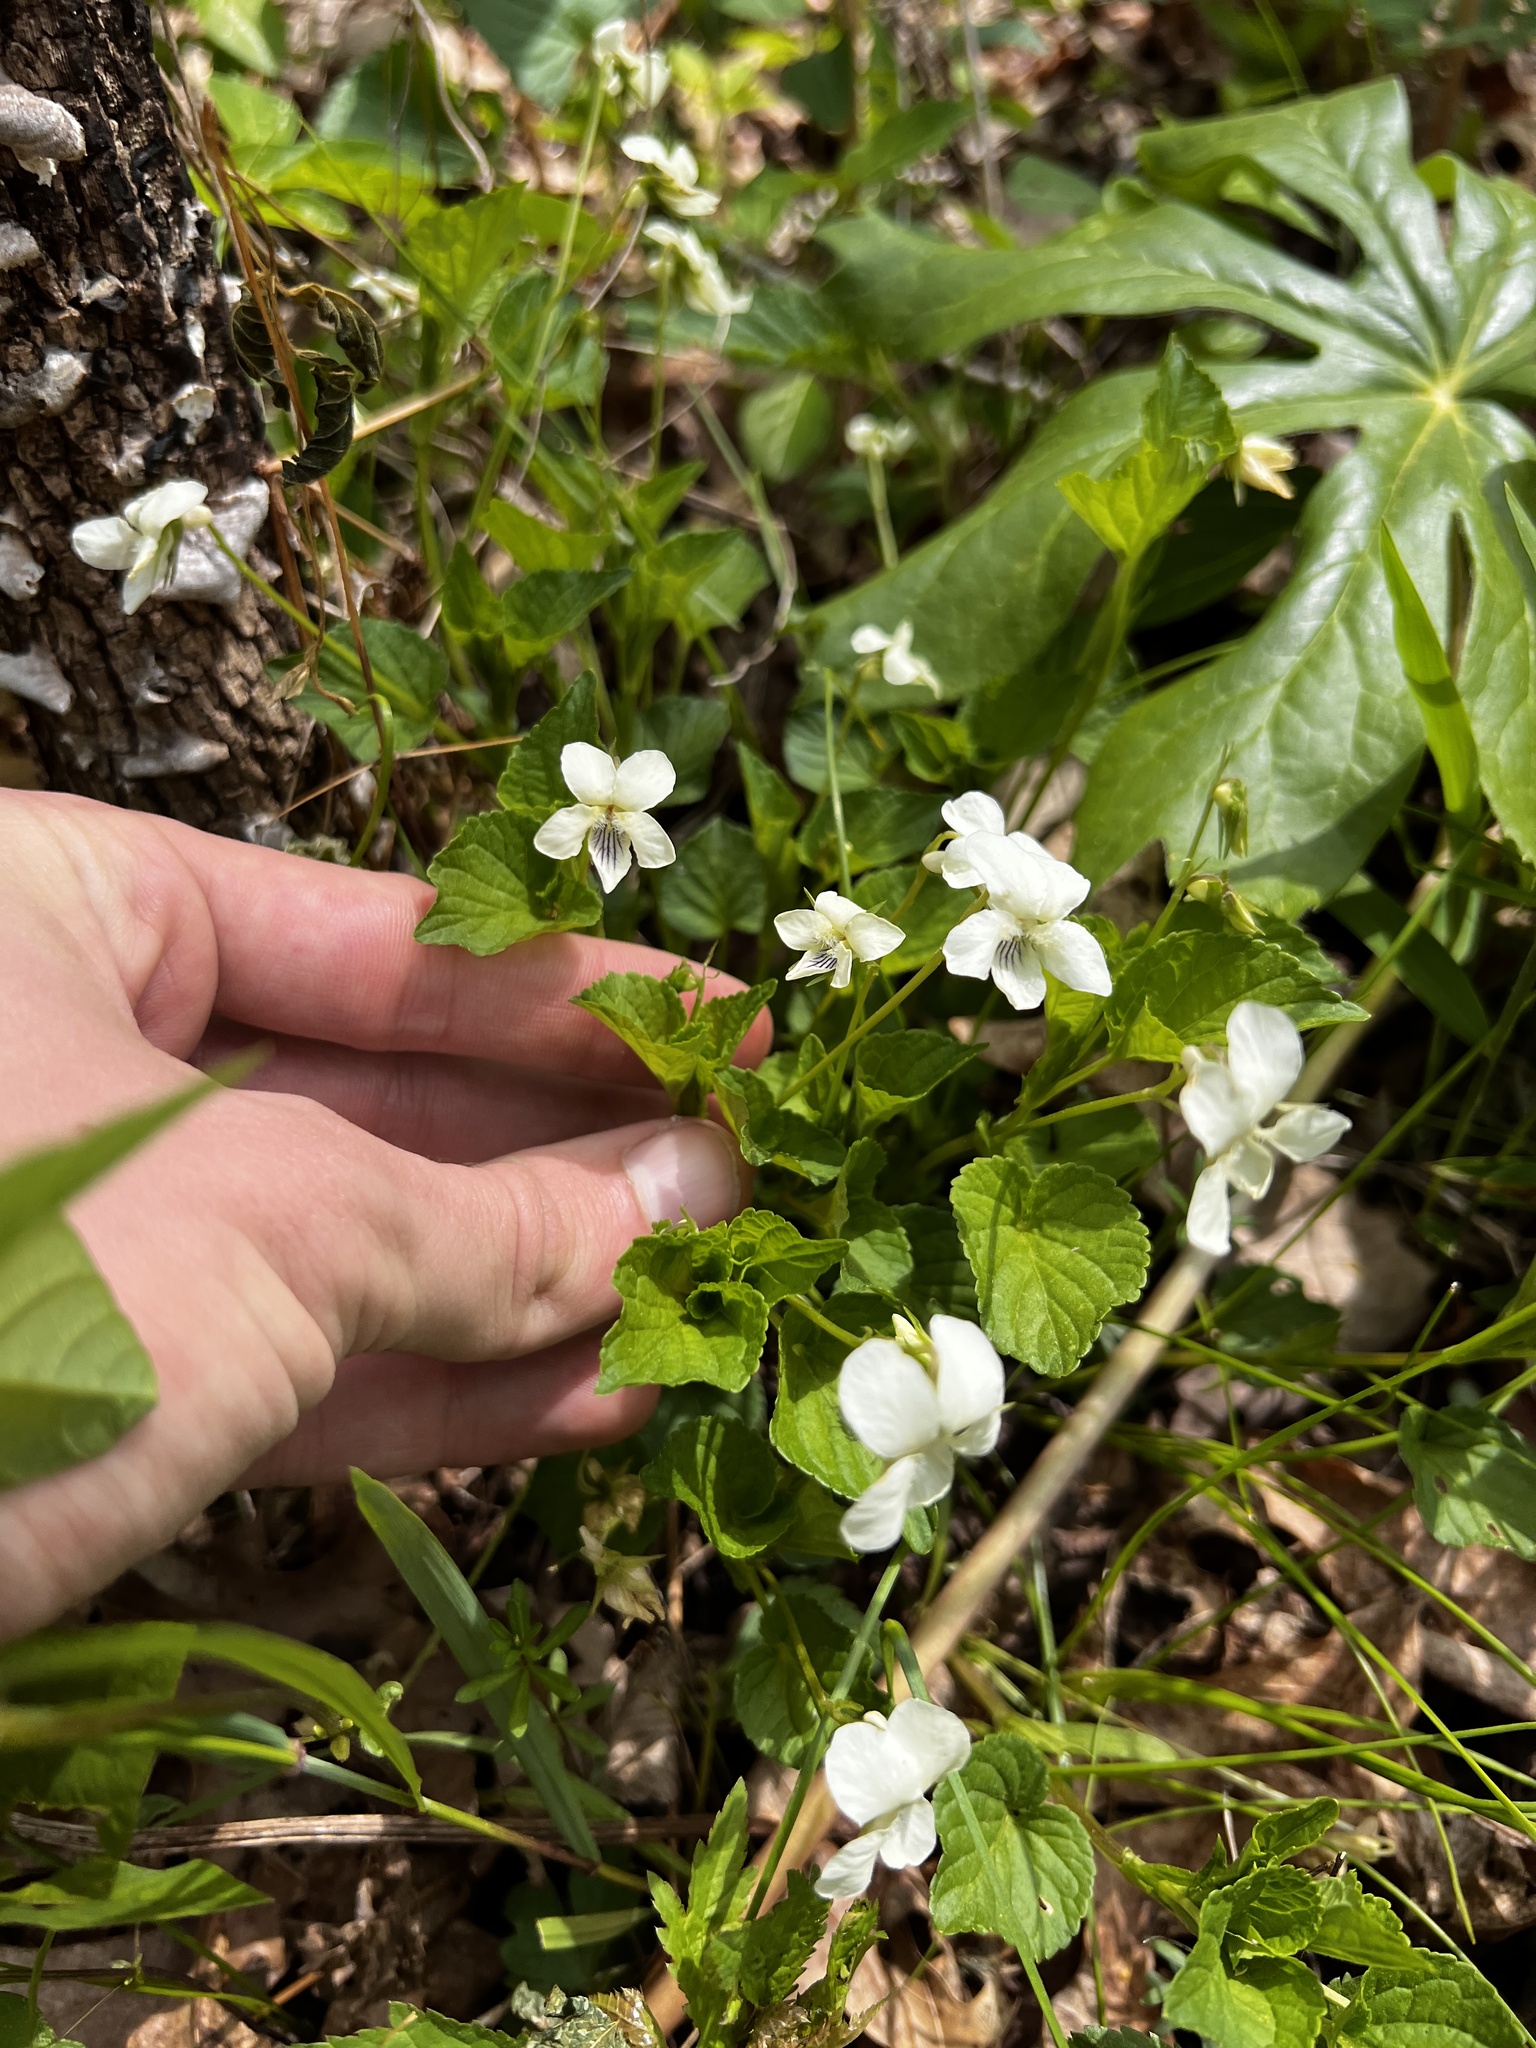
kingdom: Plantae
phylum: Tracheophyta
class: Magnoliopsida
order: Malpighiales
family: Violaceae
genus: Viola
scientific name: Viola striata
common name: Cream violet
